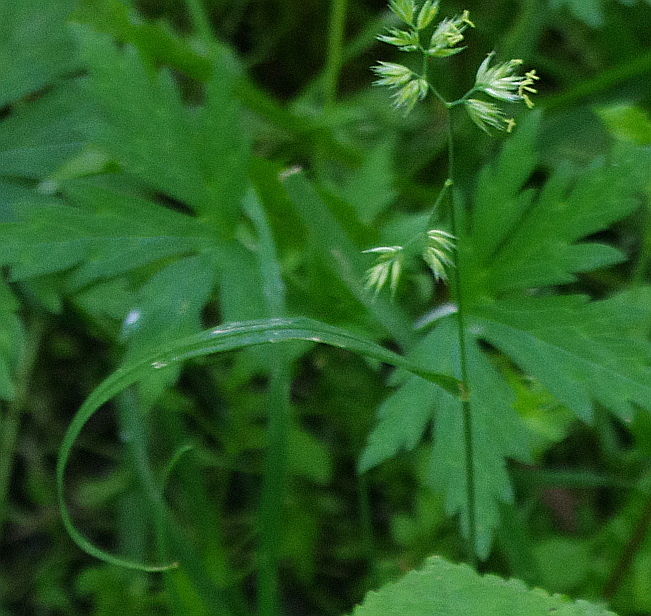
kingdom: Plantae
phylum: Tracheophyta
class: Liliopsida
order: Poales
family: Poaceae
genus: Dactylis
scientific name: Dactylis glomerata
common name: Orchardgrass
